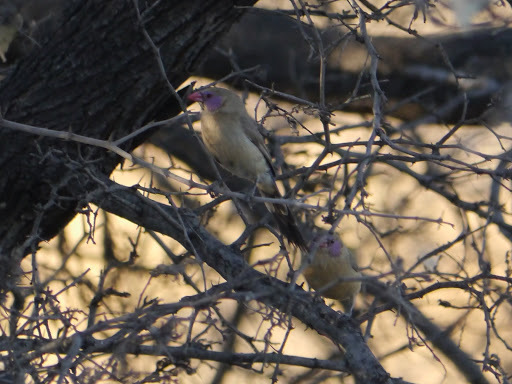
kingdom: Animalia
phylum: Chordata
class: Aves
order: Passeriformes
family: Estrildidae
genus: Uraeginthus
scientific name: Uraeginthus granatinus
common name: Violet-eared waxbill
